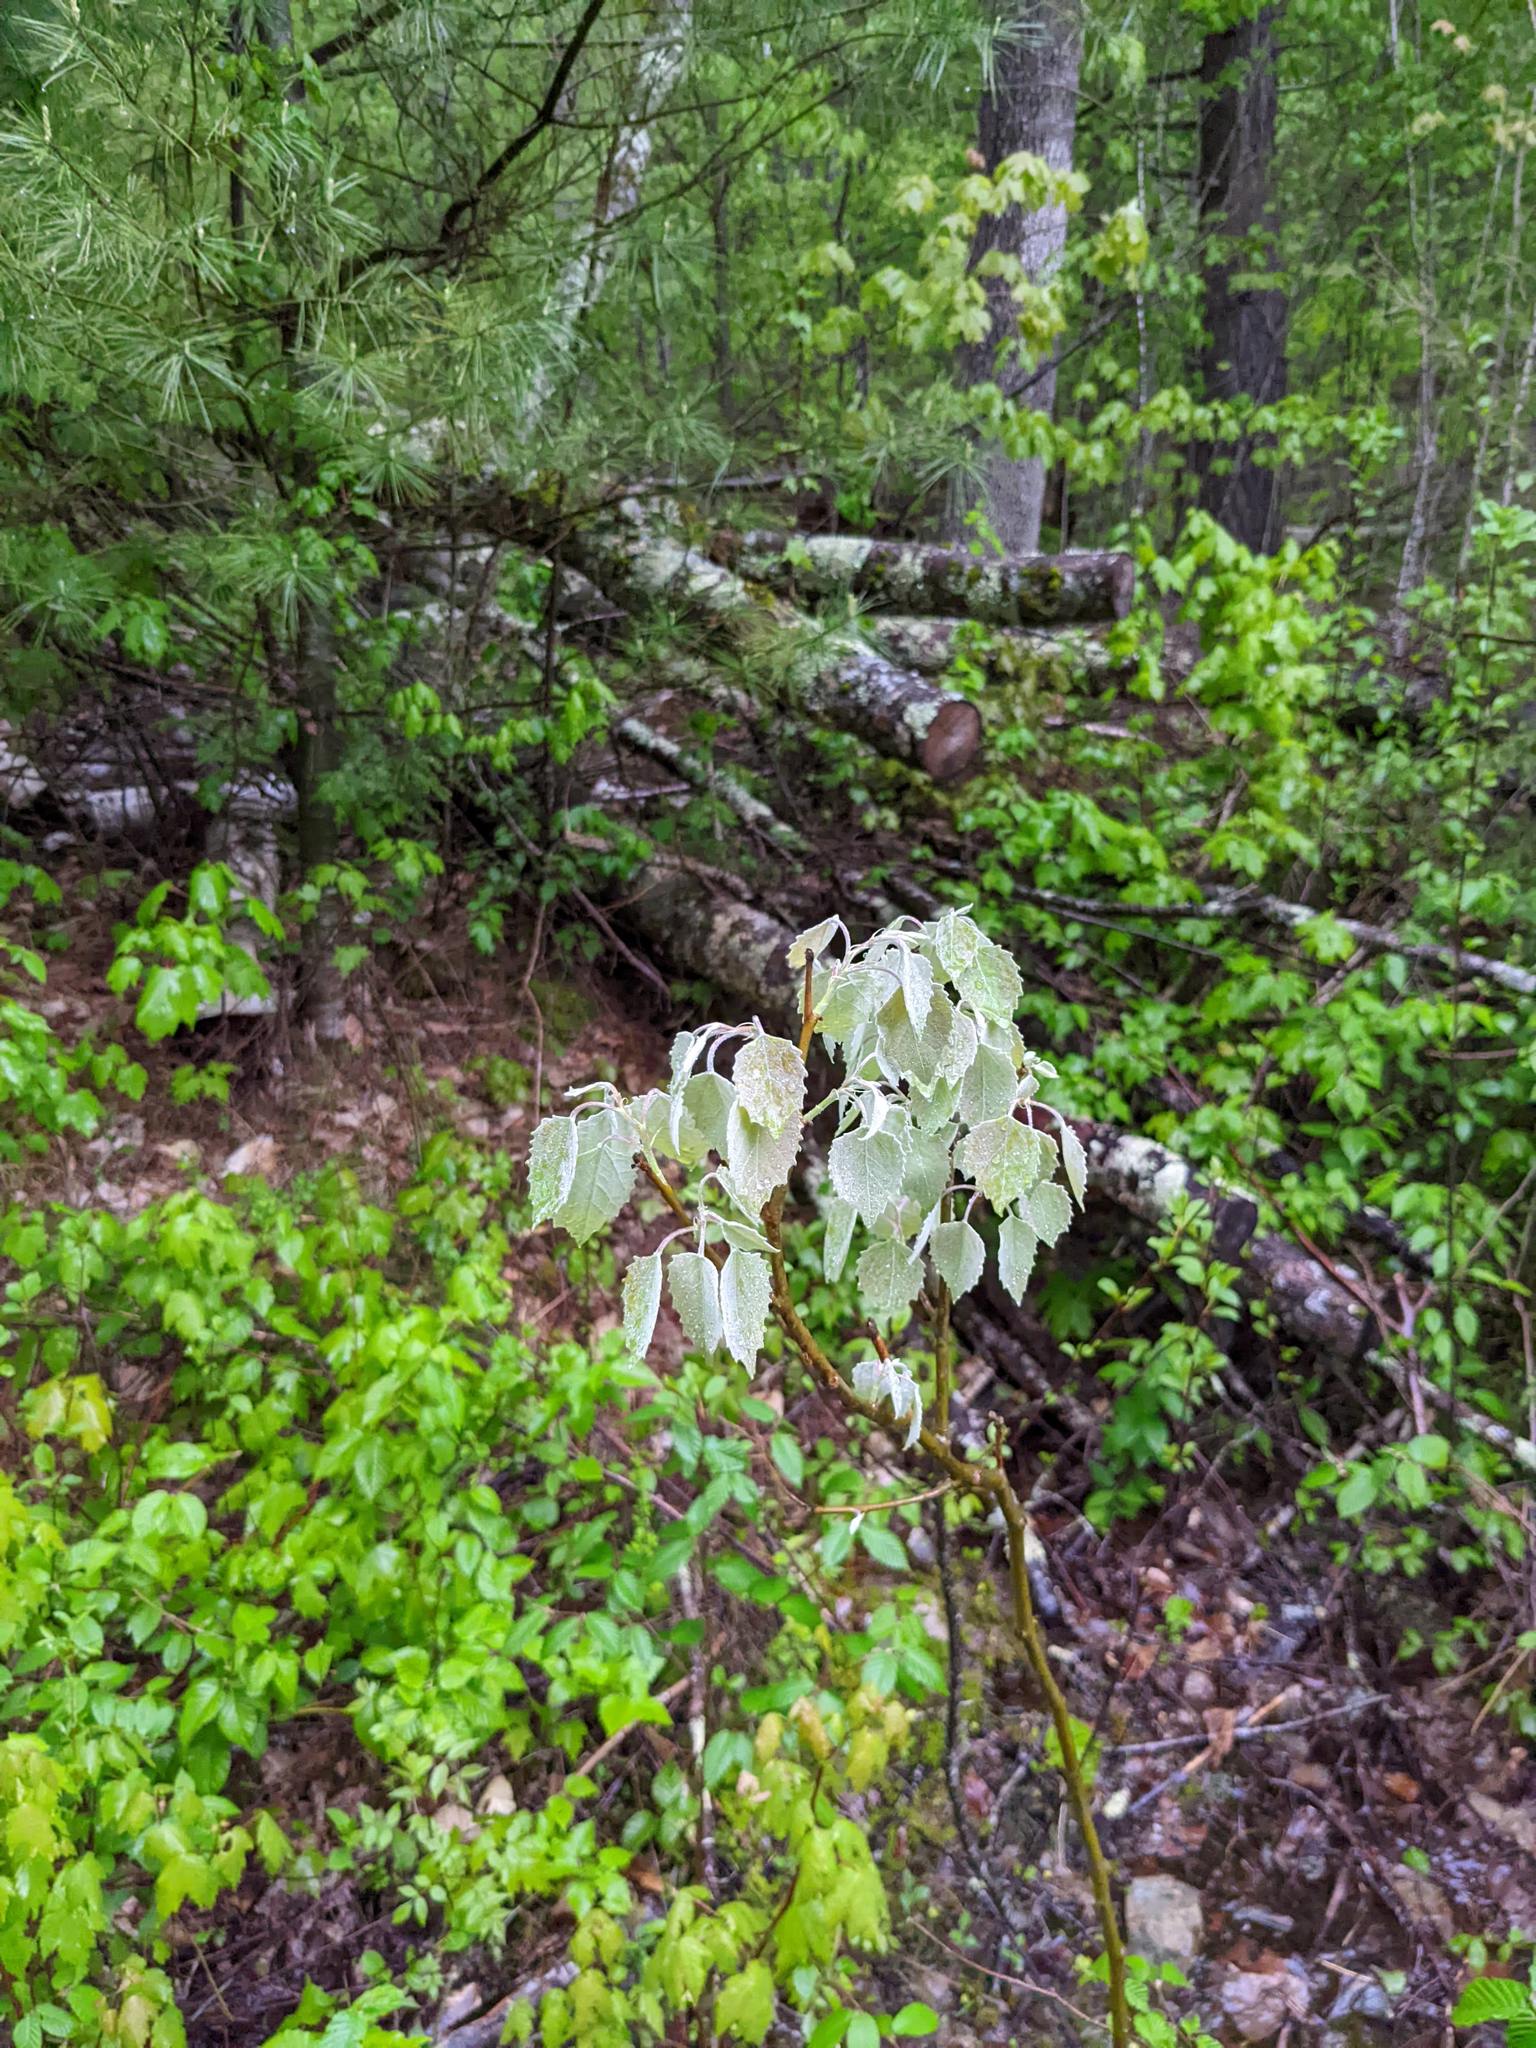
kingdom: Plantae
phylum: Tracheophyta
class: Magnoliopsida
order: Malpighiales
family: Salicaceae
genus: Populus
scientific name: Populus grandidentata
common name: Bigtooth aspen
